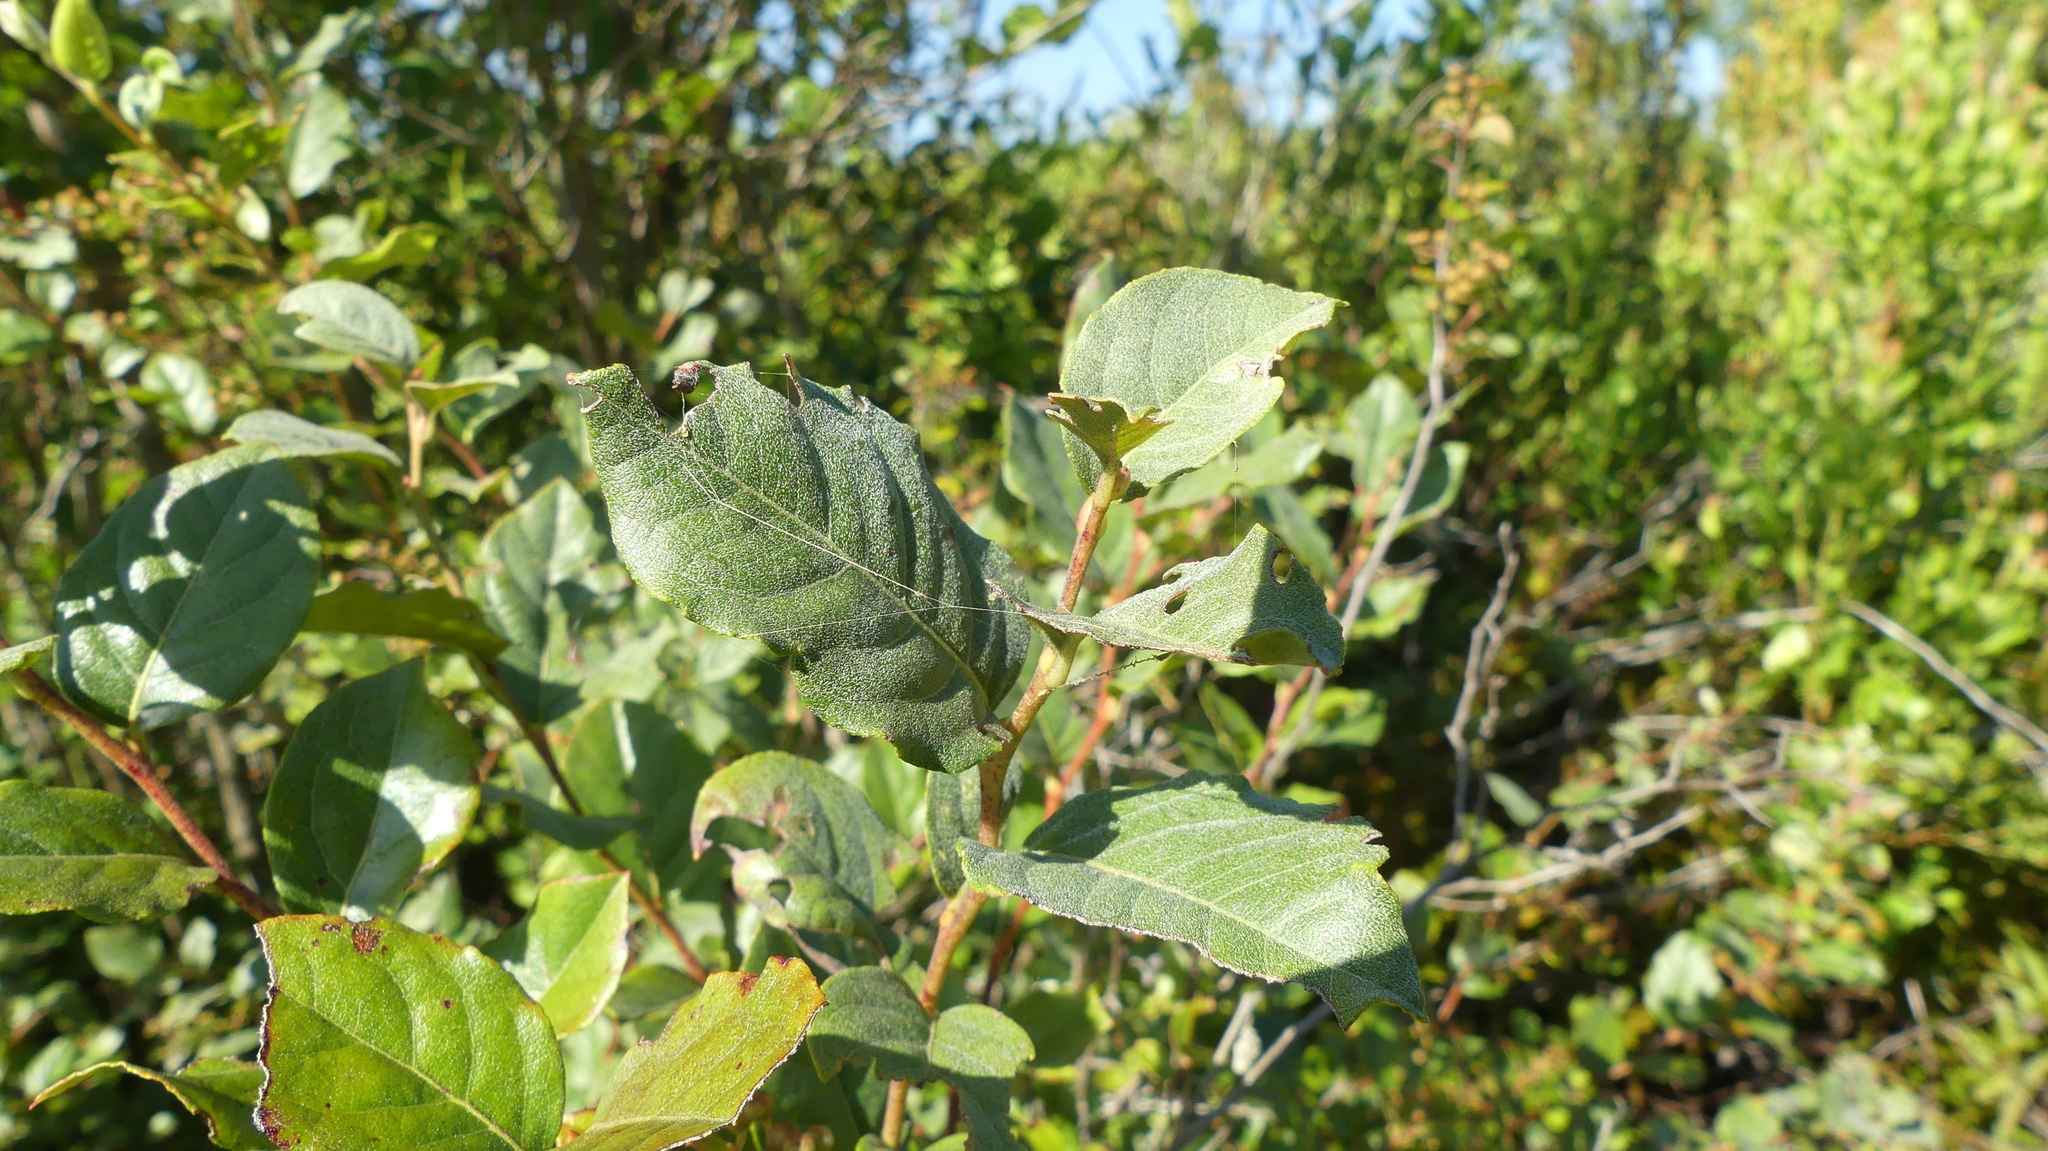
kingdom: Plantae
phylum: Tracheophyta
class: Magnoliopsida
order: Ericales
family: Ericaceae
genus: Lyonia
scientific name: Lyonia ligustrina
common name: Maleberry
